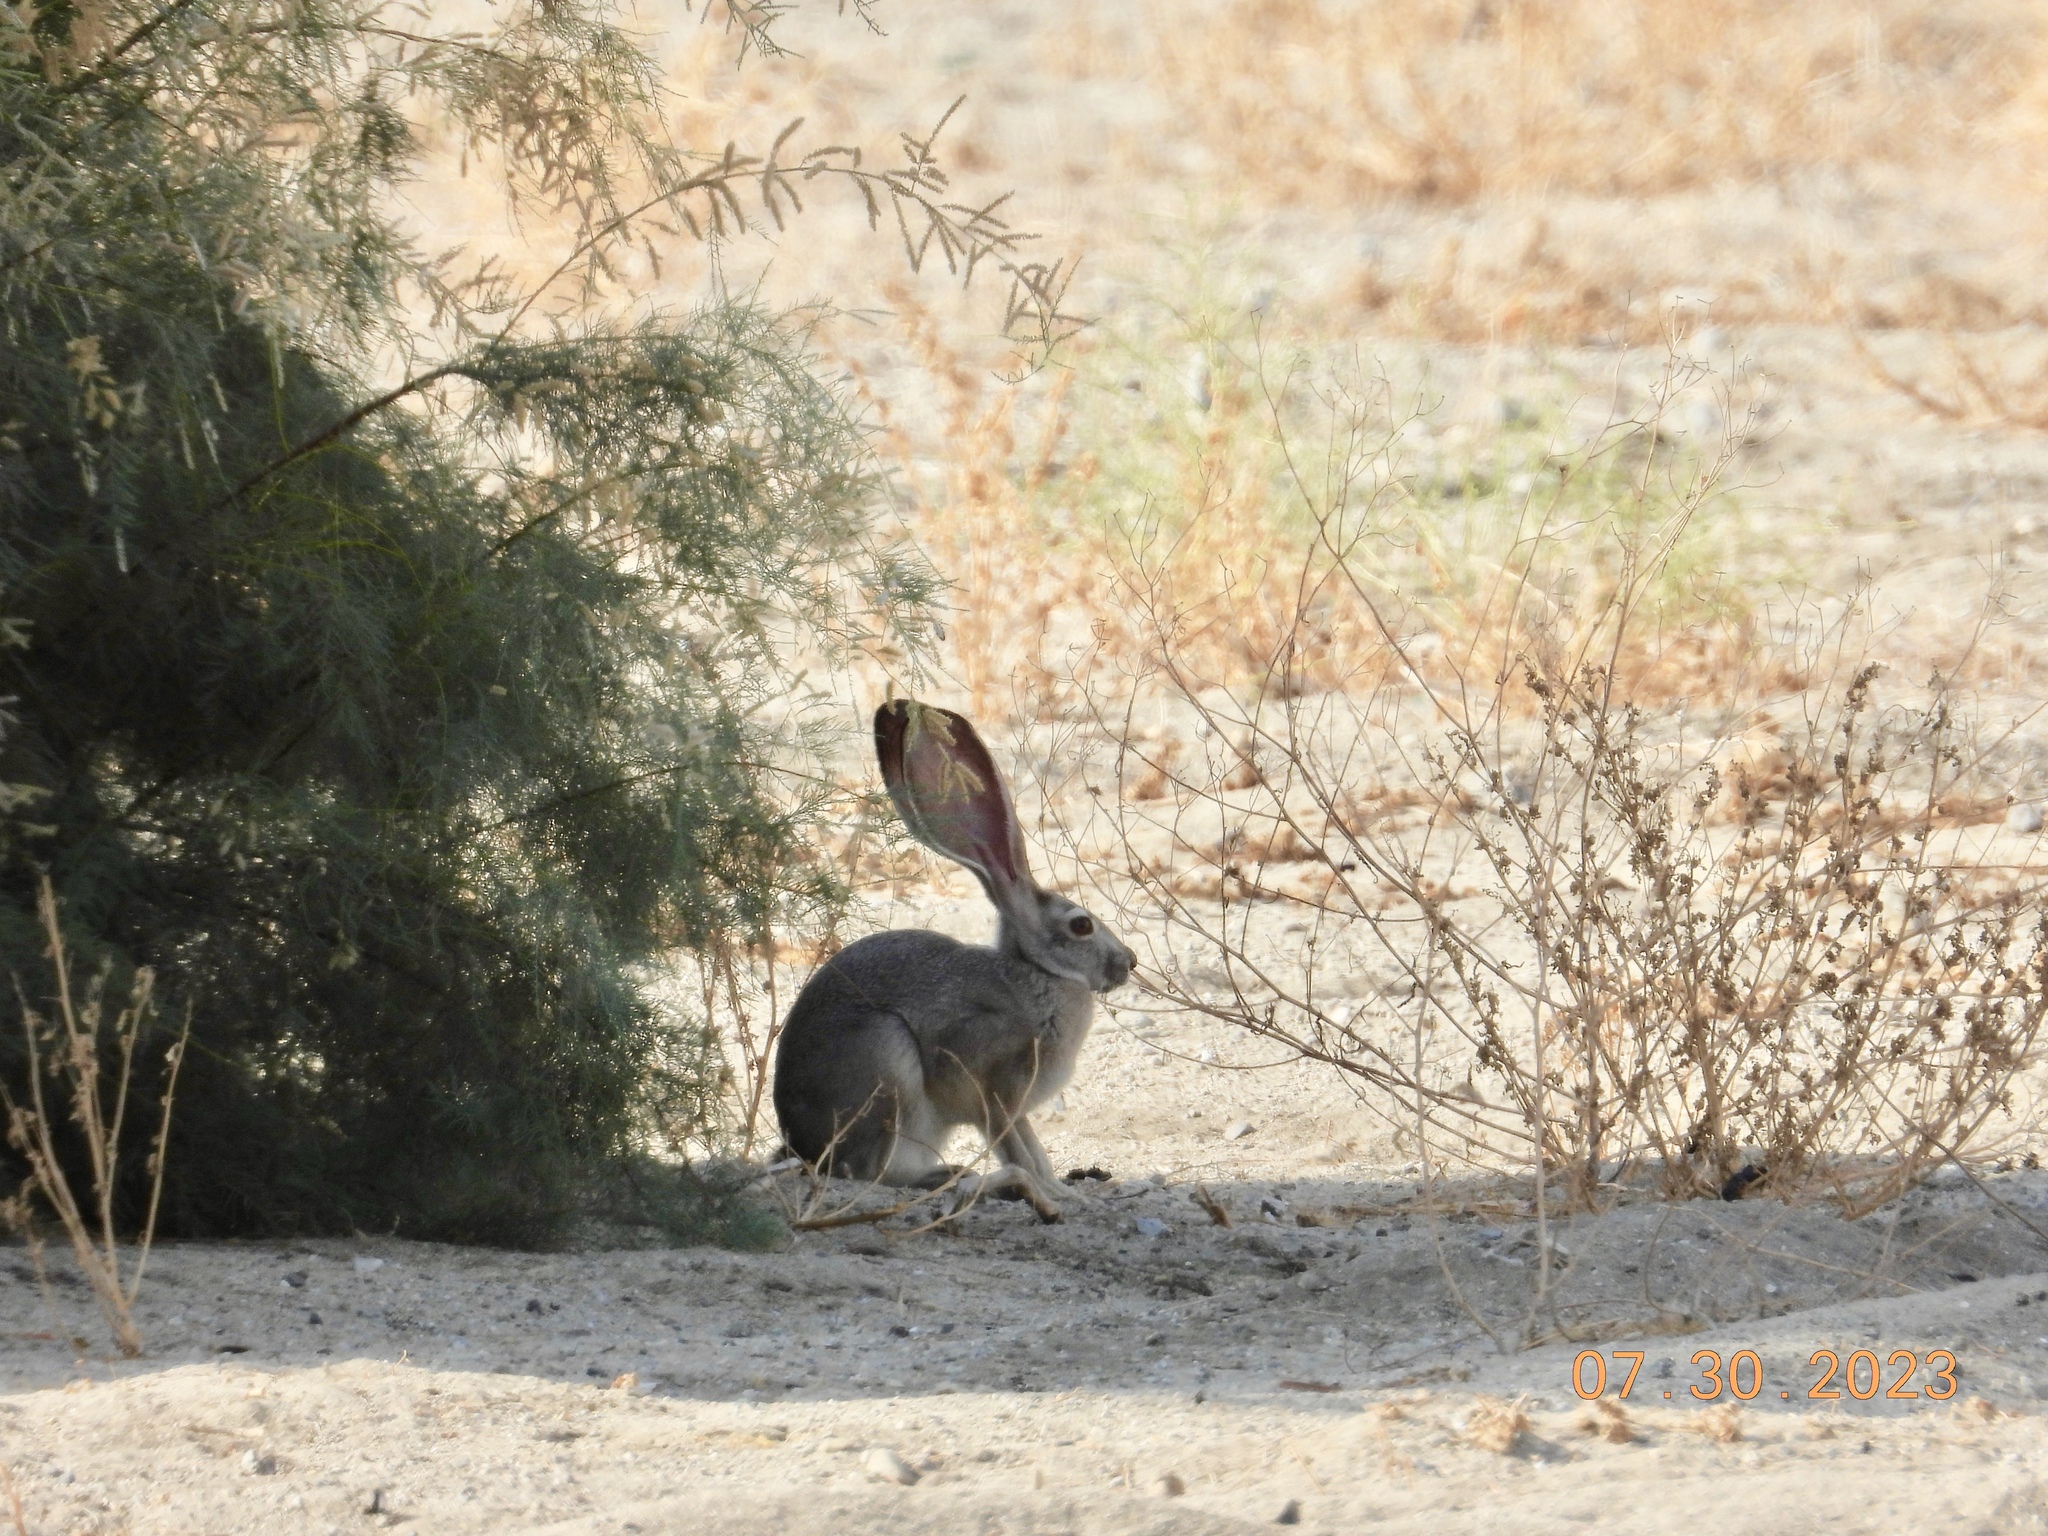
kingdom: Animalia
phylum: Chordata
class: Mammalia
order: Lagomorpha
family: Leporidae
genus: Lepus
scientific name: Lepus californicus
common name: Black-tailed jackrabbit
